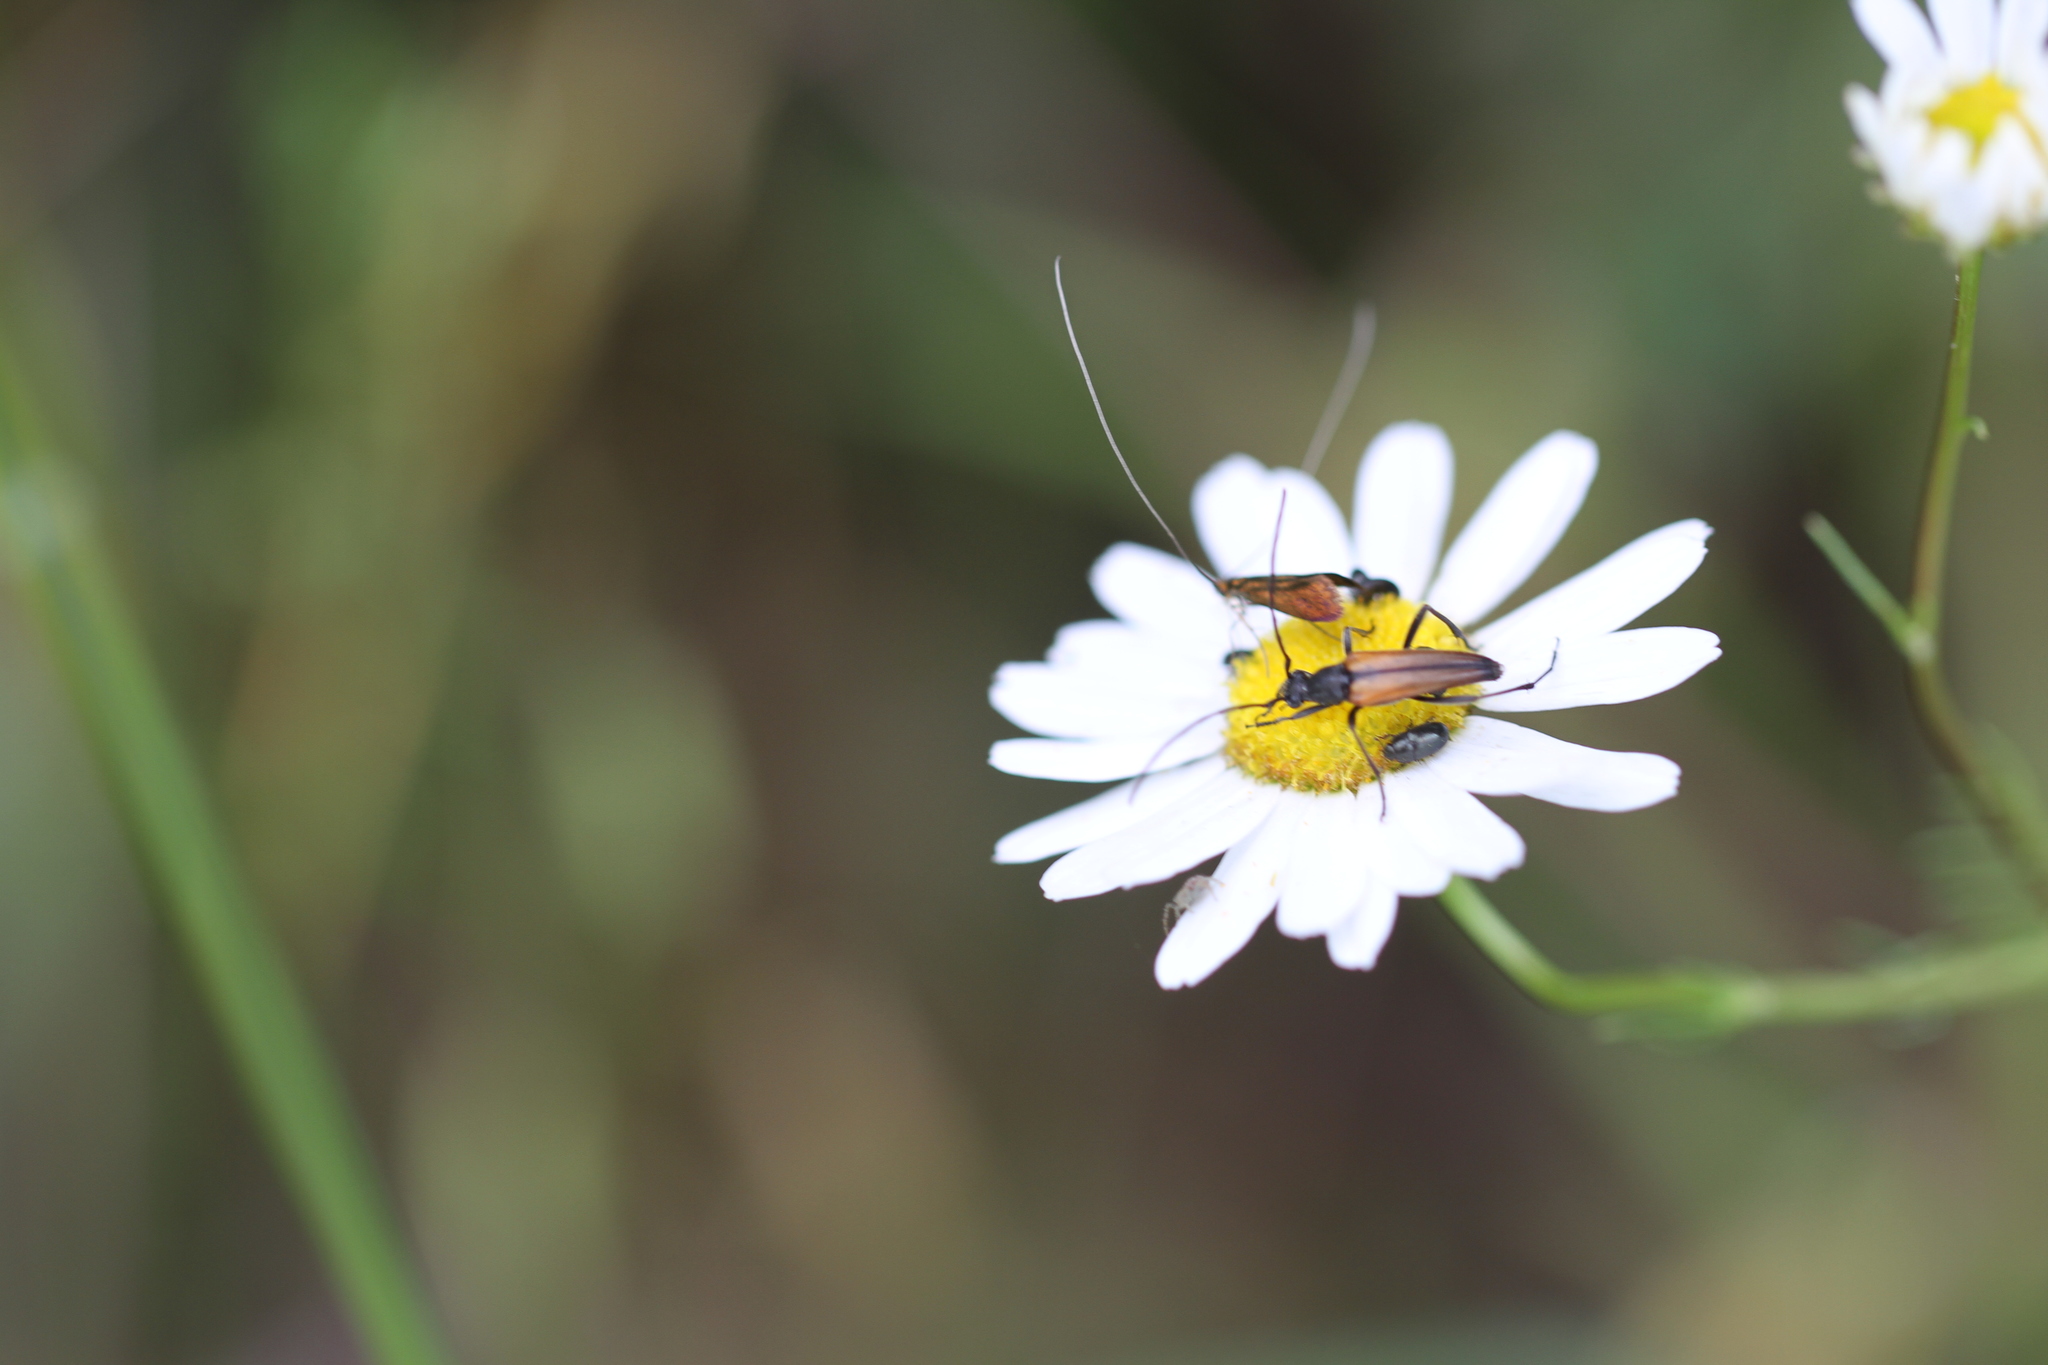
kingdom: Animalia
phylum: Arthropoda
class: Insecta
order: Coleoptera
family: Cerambycidae
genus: Stenurella
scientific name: Stenurella melanura
